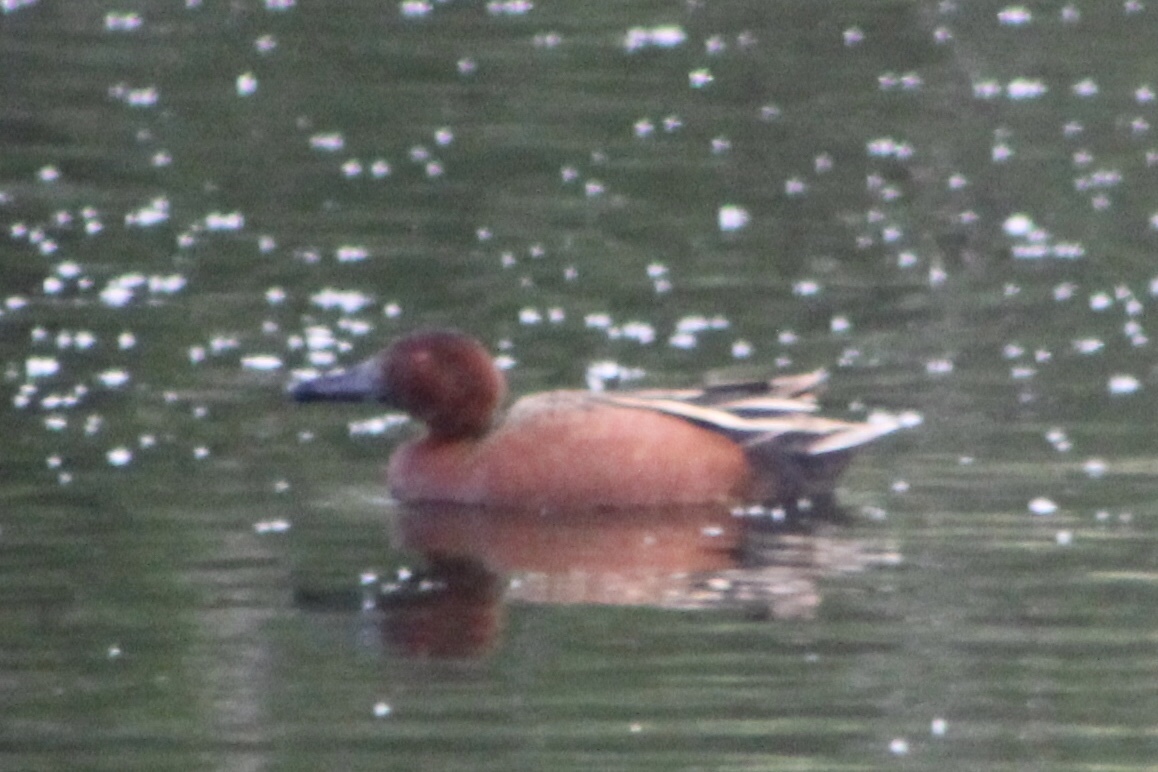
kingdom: Animalia
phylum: Chordata
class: Aves
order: Anseriformes
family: Anatidae
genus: Spatula
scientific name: Spatula cyanoptera
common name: Cinnamon teal
